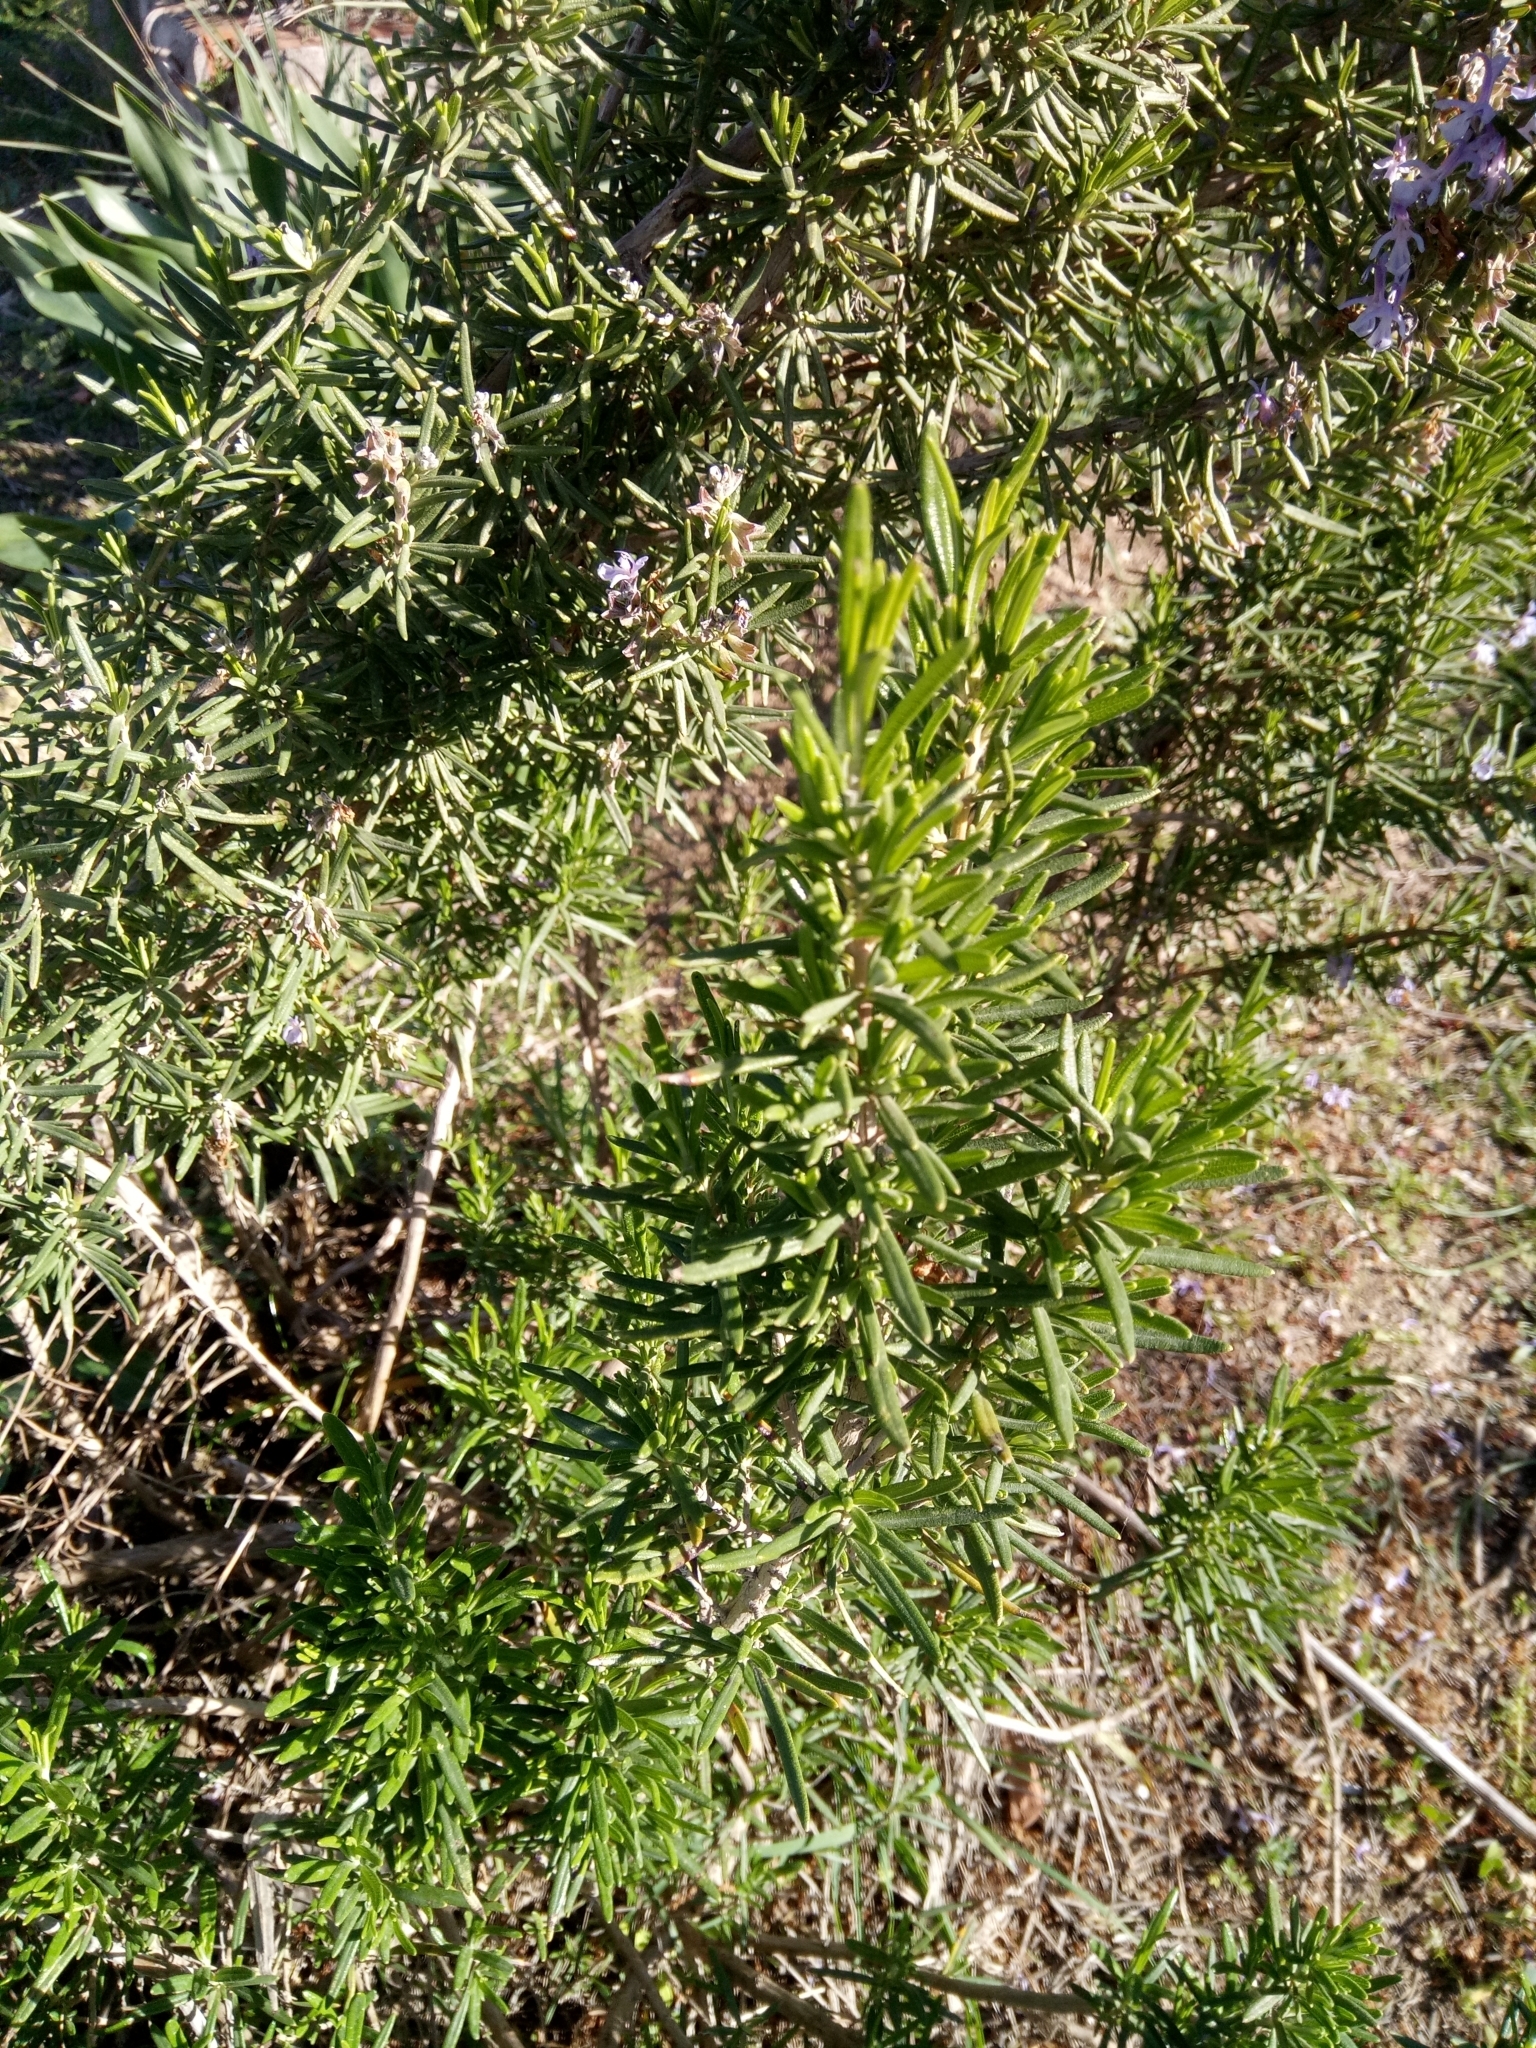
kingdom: Plantae
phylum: Tracheophyta
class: Magnoliopsida
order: Lamiales
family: Lamiaceae
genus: Salvia
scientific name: Salvia rosmarinus
